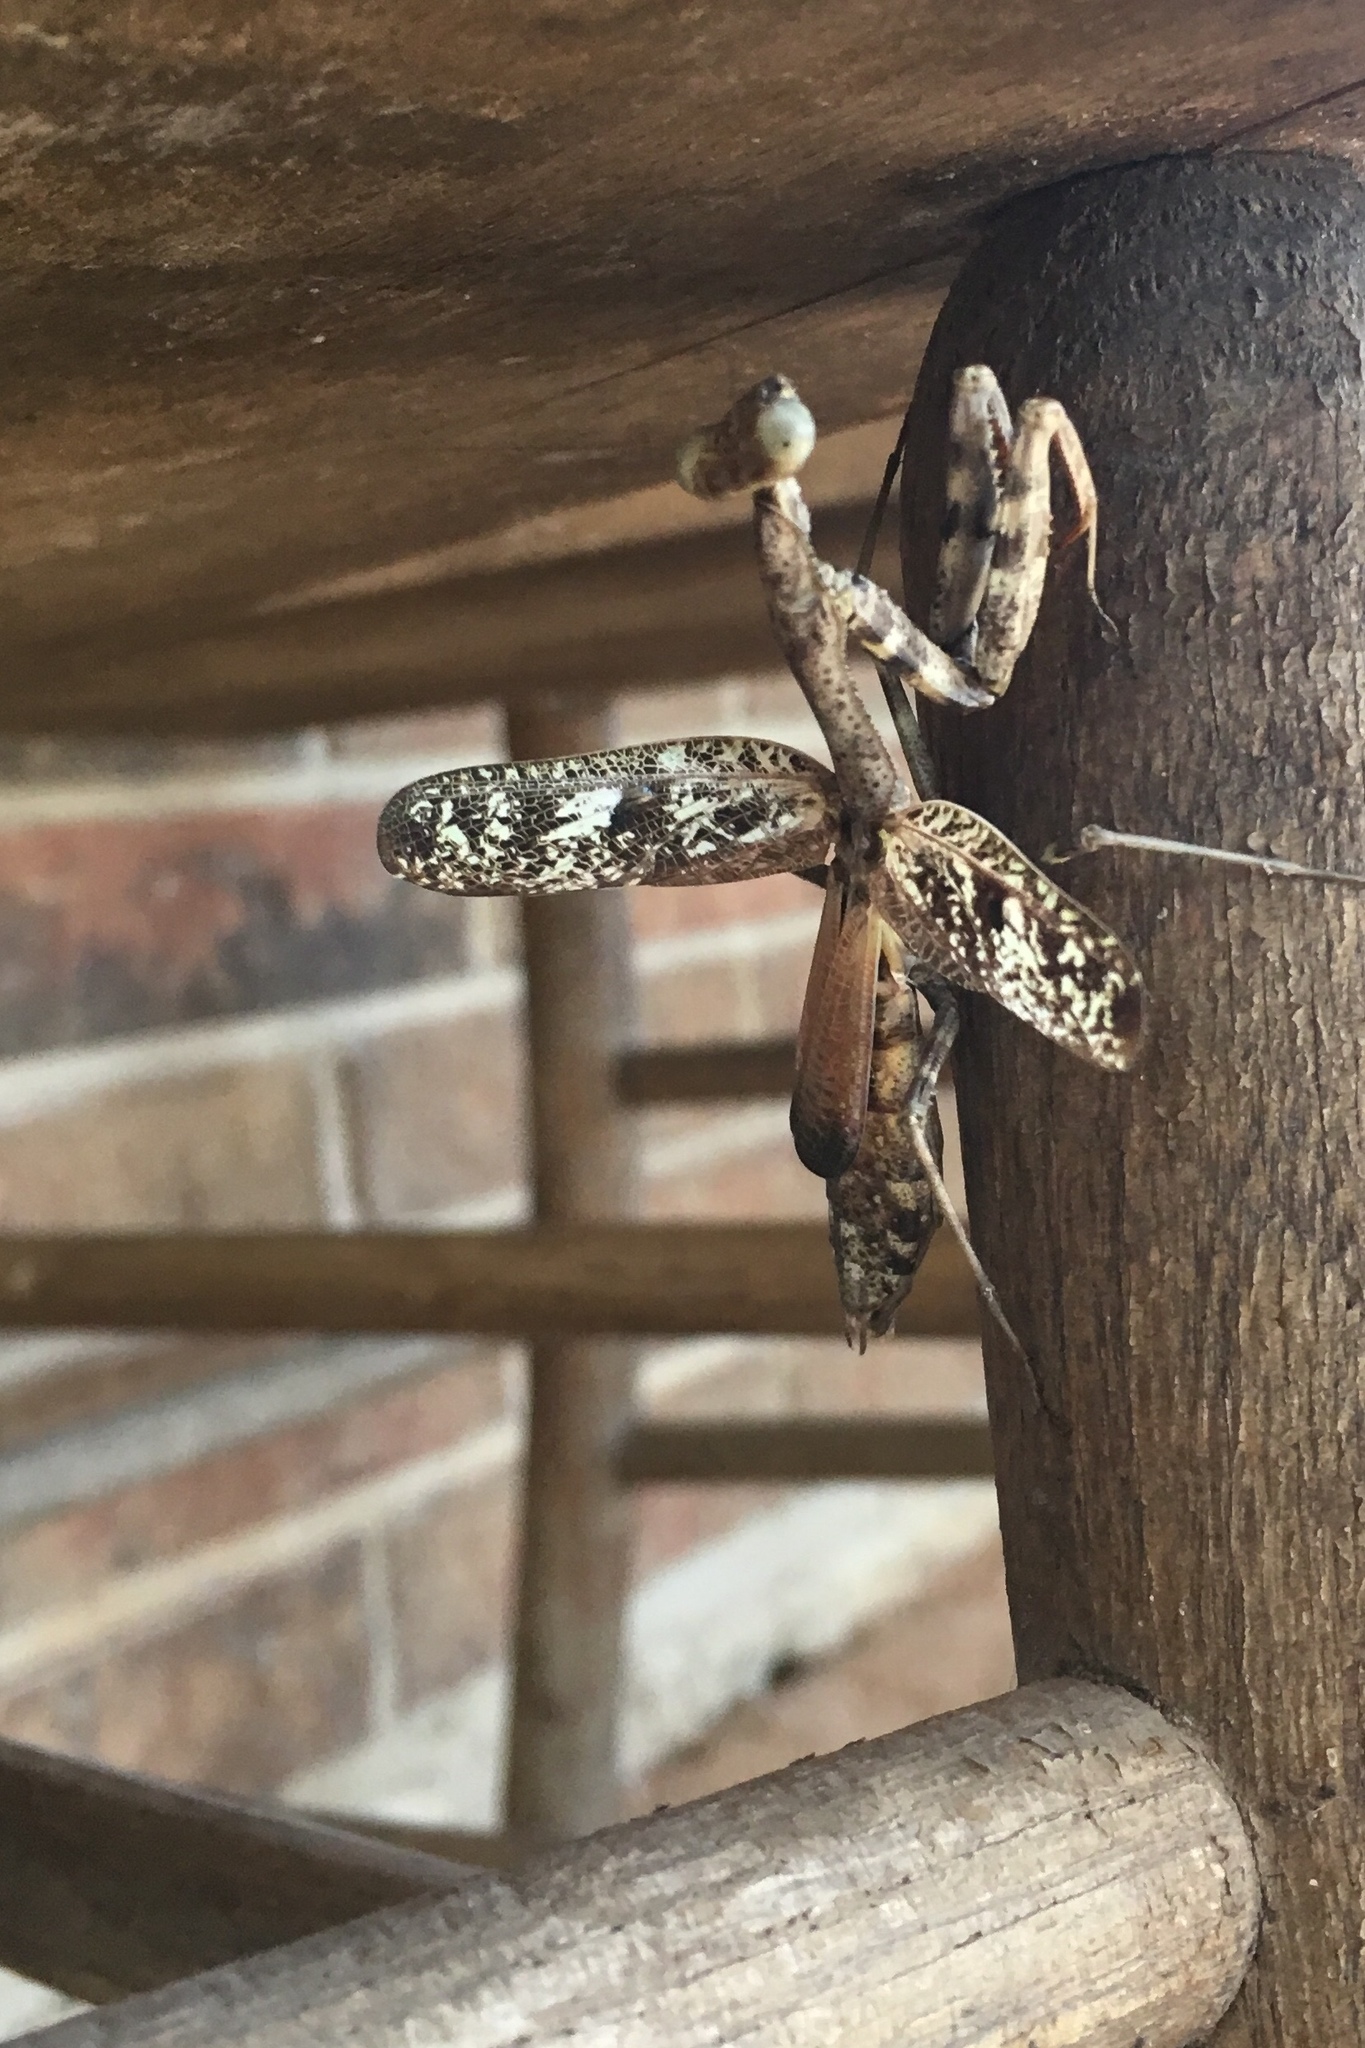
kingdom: Animalia
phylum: Arthropoda
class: Insecta
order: Mantodea
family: Mantidae
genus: Stagmomantis
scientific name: Stagmomantis carolina
